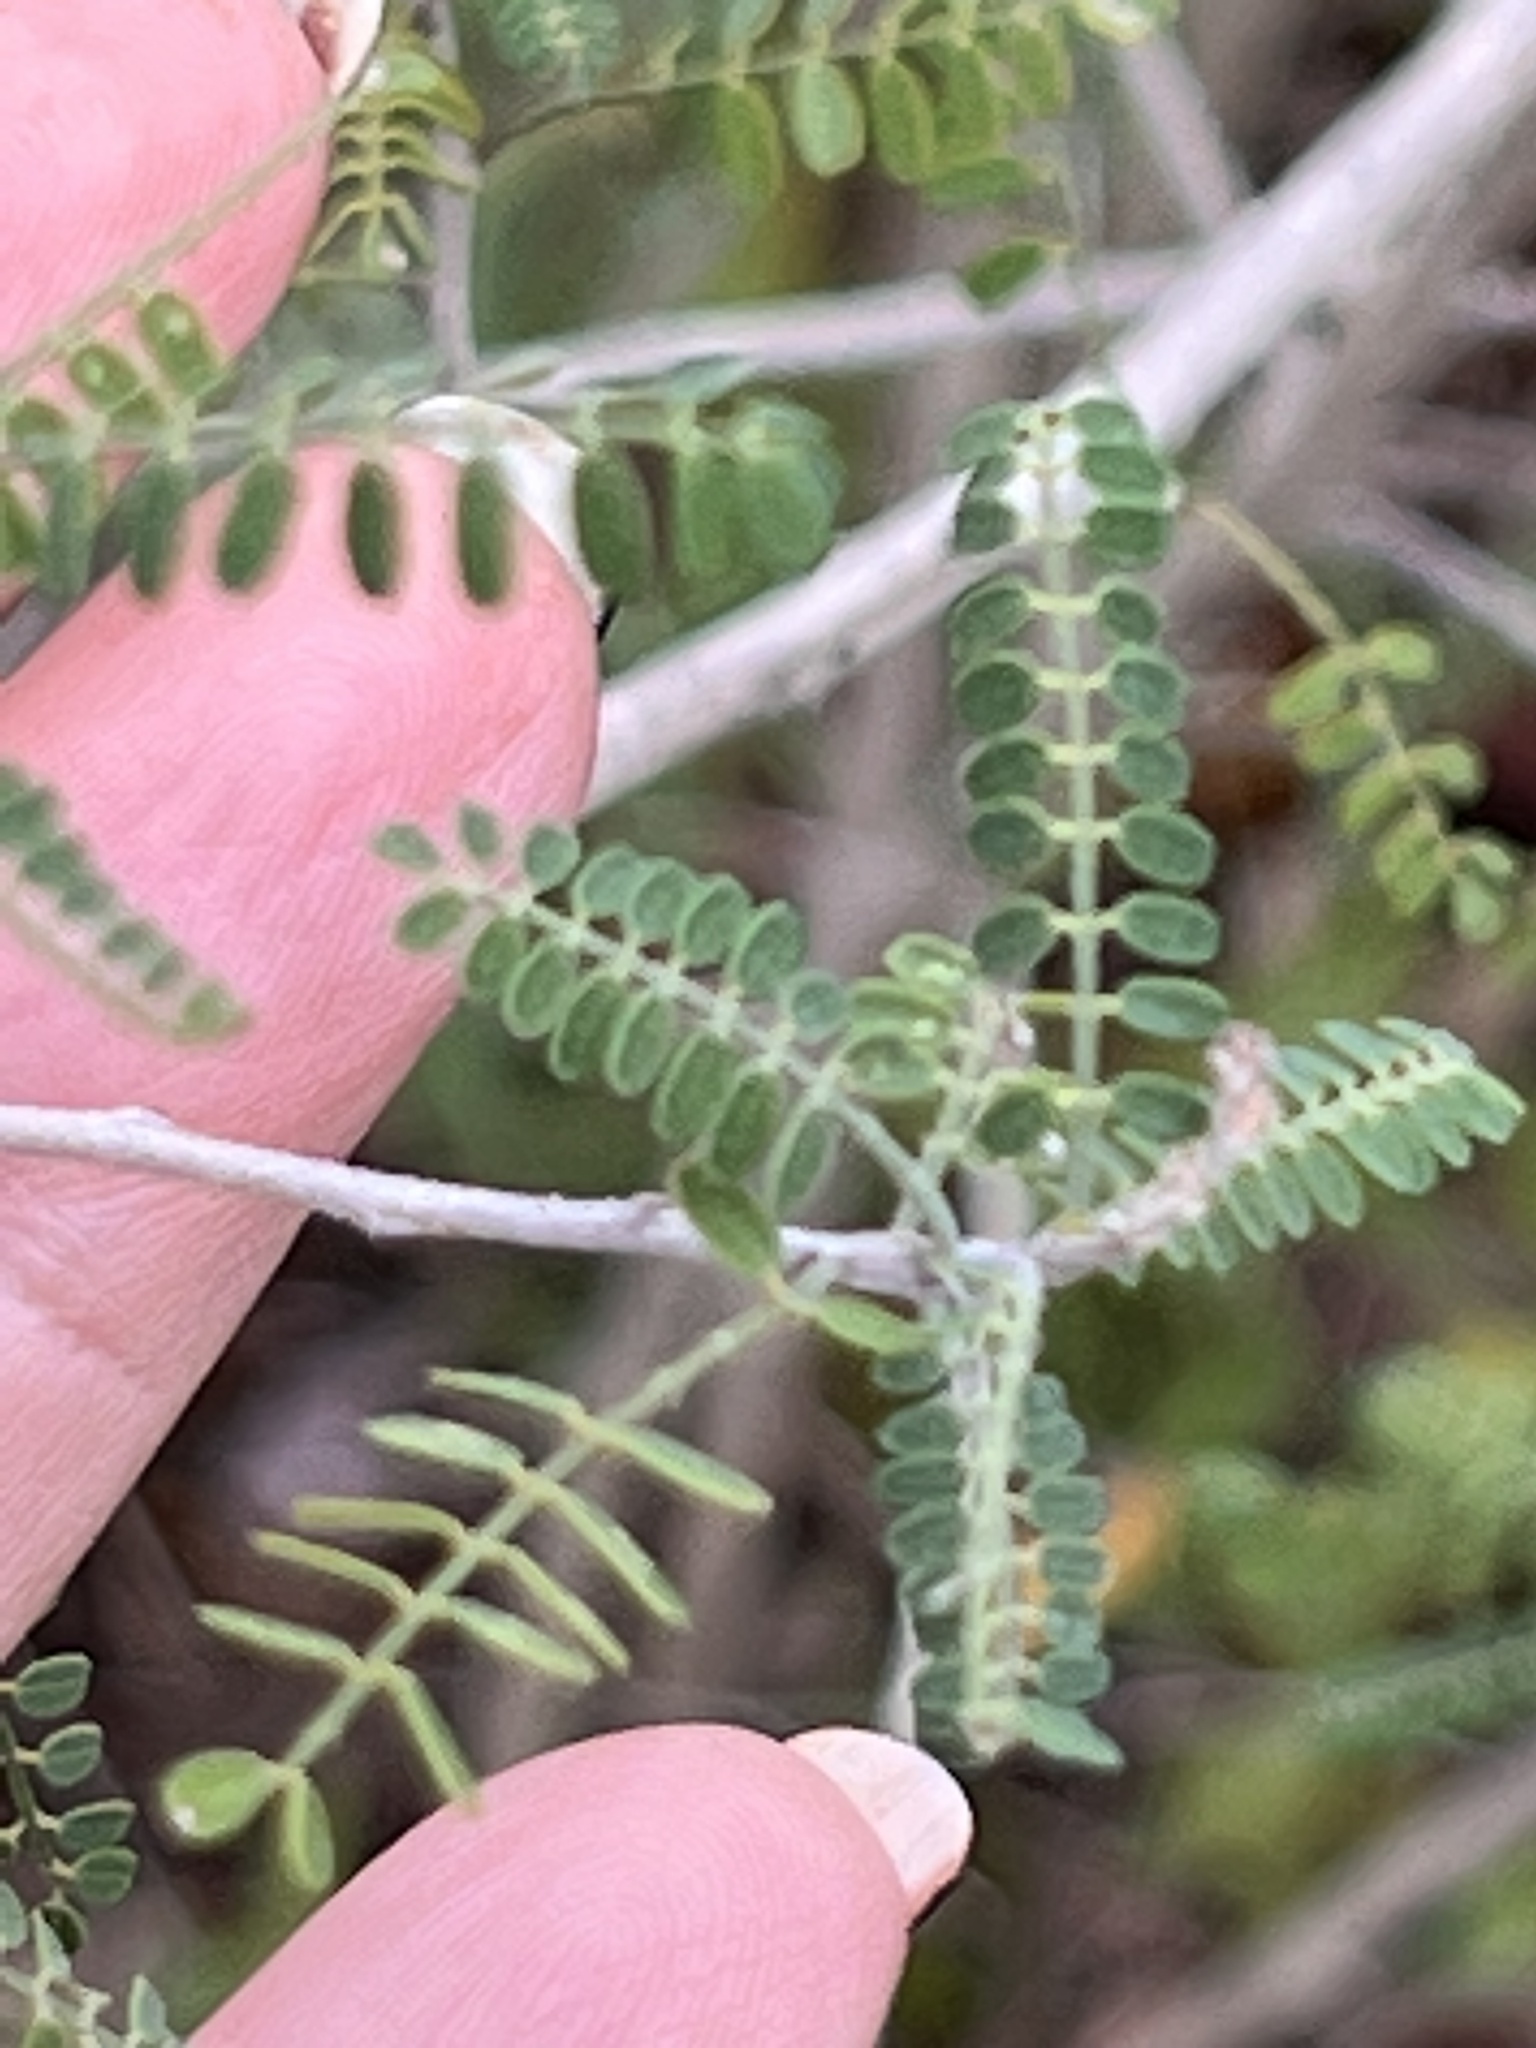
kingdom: Plantae
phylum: Tracheophyta
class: Magnoliopsida
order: Fabales
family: Fabaceae
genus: Eysenhardtia
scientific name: Eysenhardtia texana
